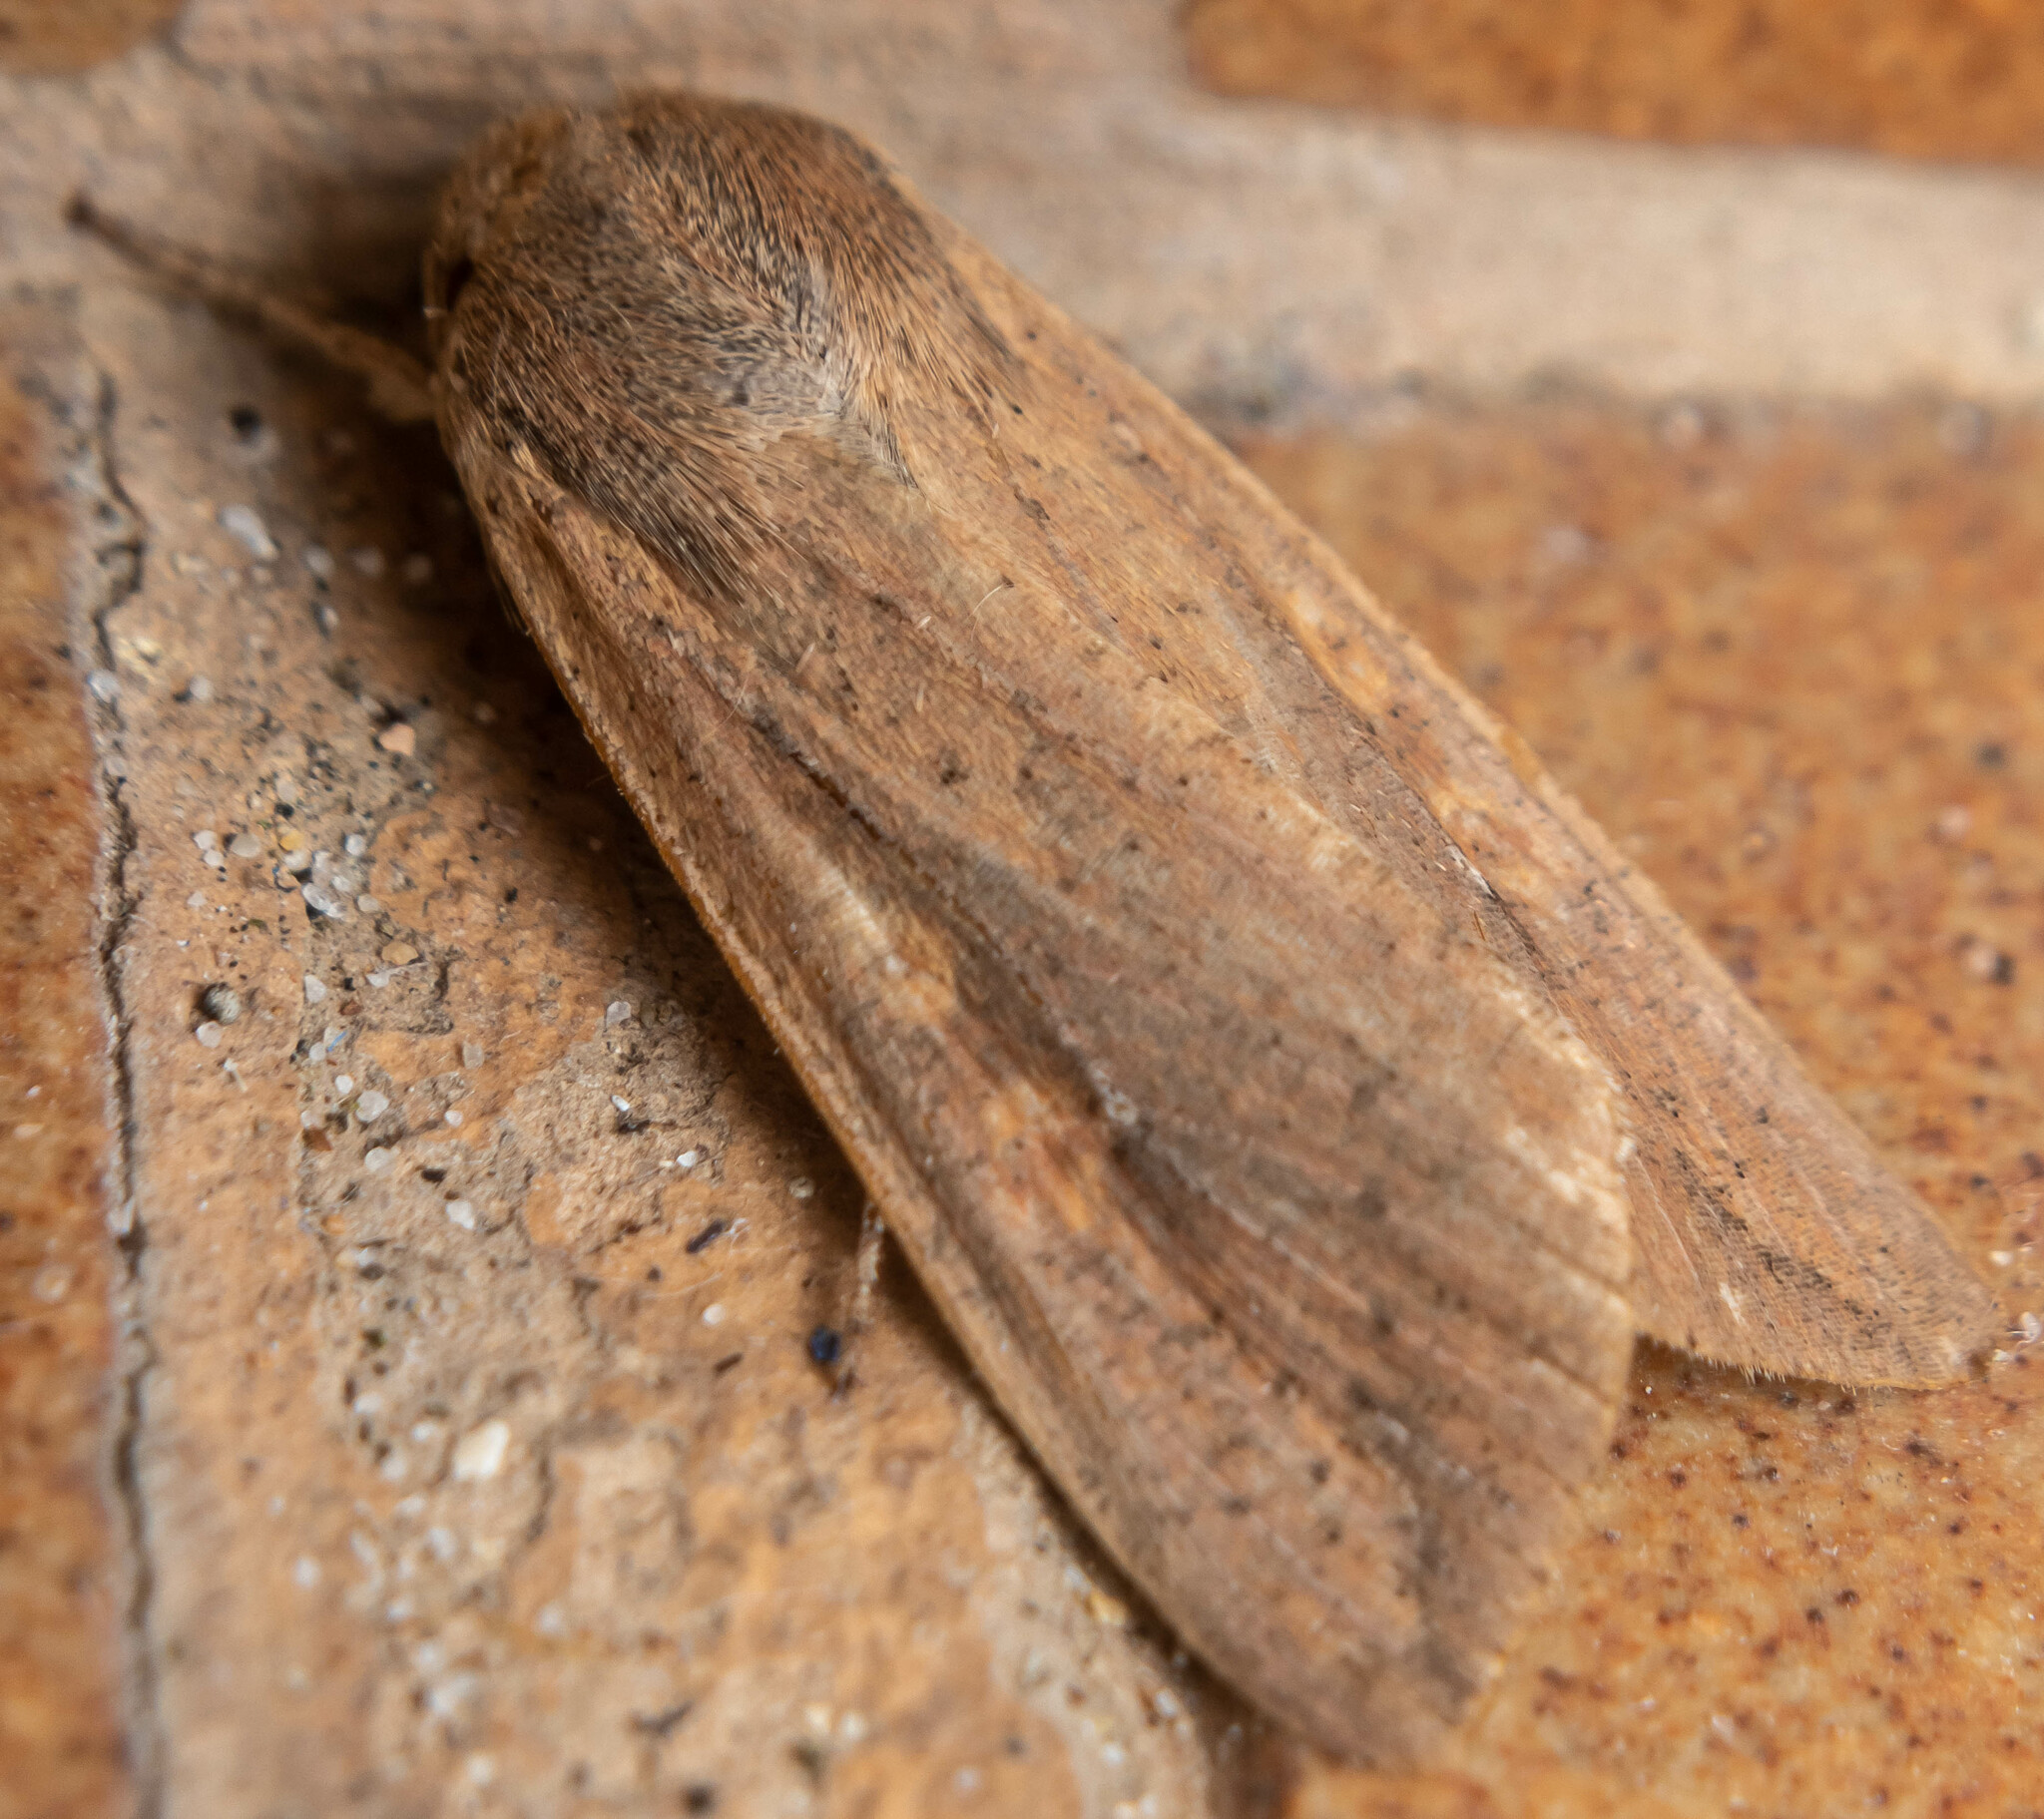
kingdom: Animalia
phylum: Arthropoda
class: Insecta
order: Lepidoptera
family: Noctuidae
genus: Mythimna
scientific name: Mythimna unipuncta
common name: White-speck
